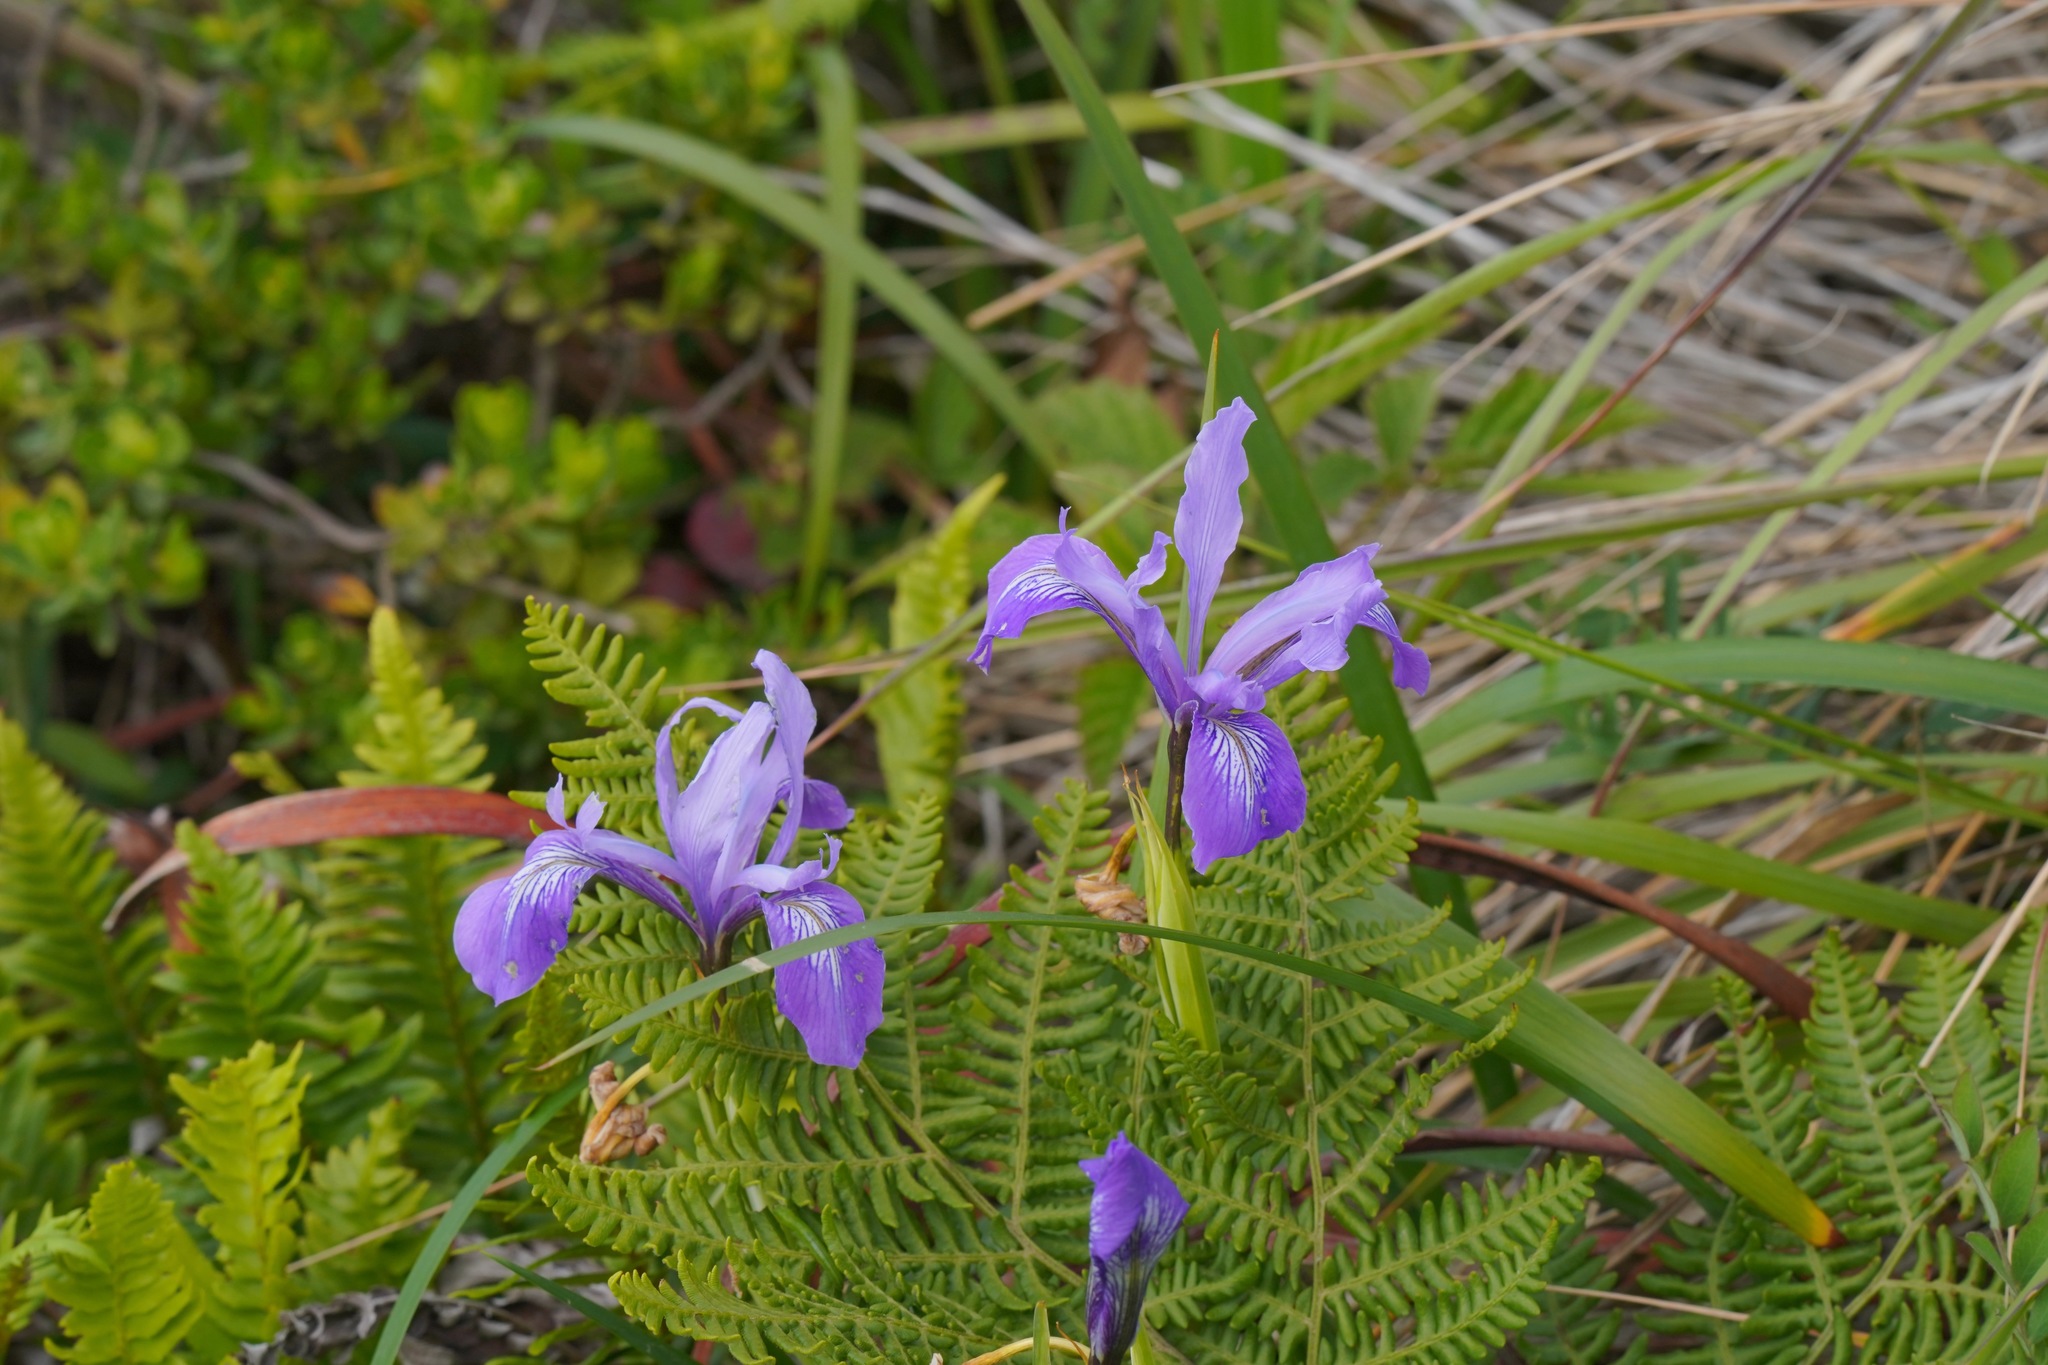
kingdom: Plantae
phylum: Tracheophyta
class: Liliopsida
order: Asparagales
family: Iridaceae
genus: Iris
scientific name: Iris douglasiana
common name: Marin iris
